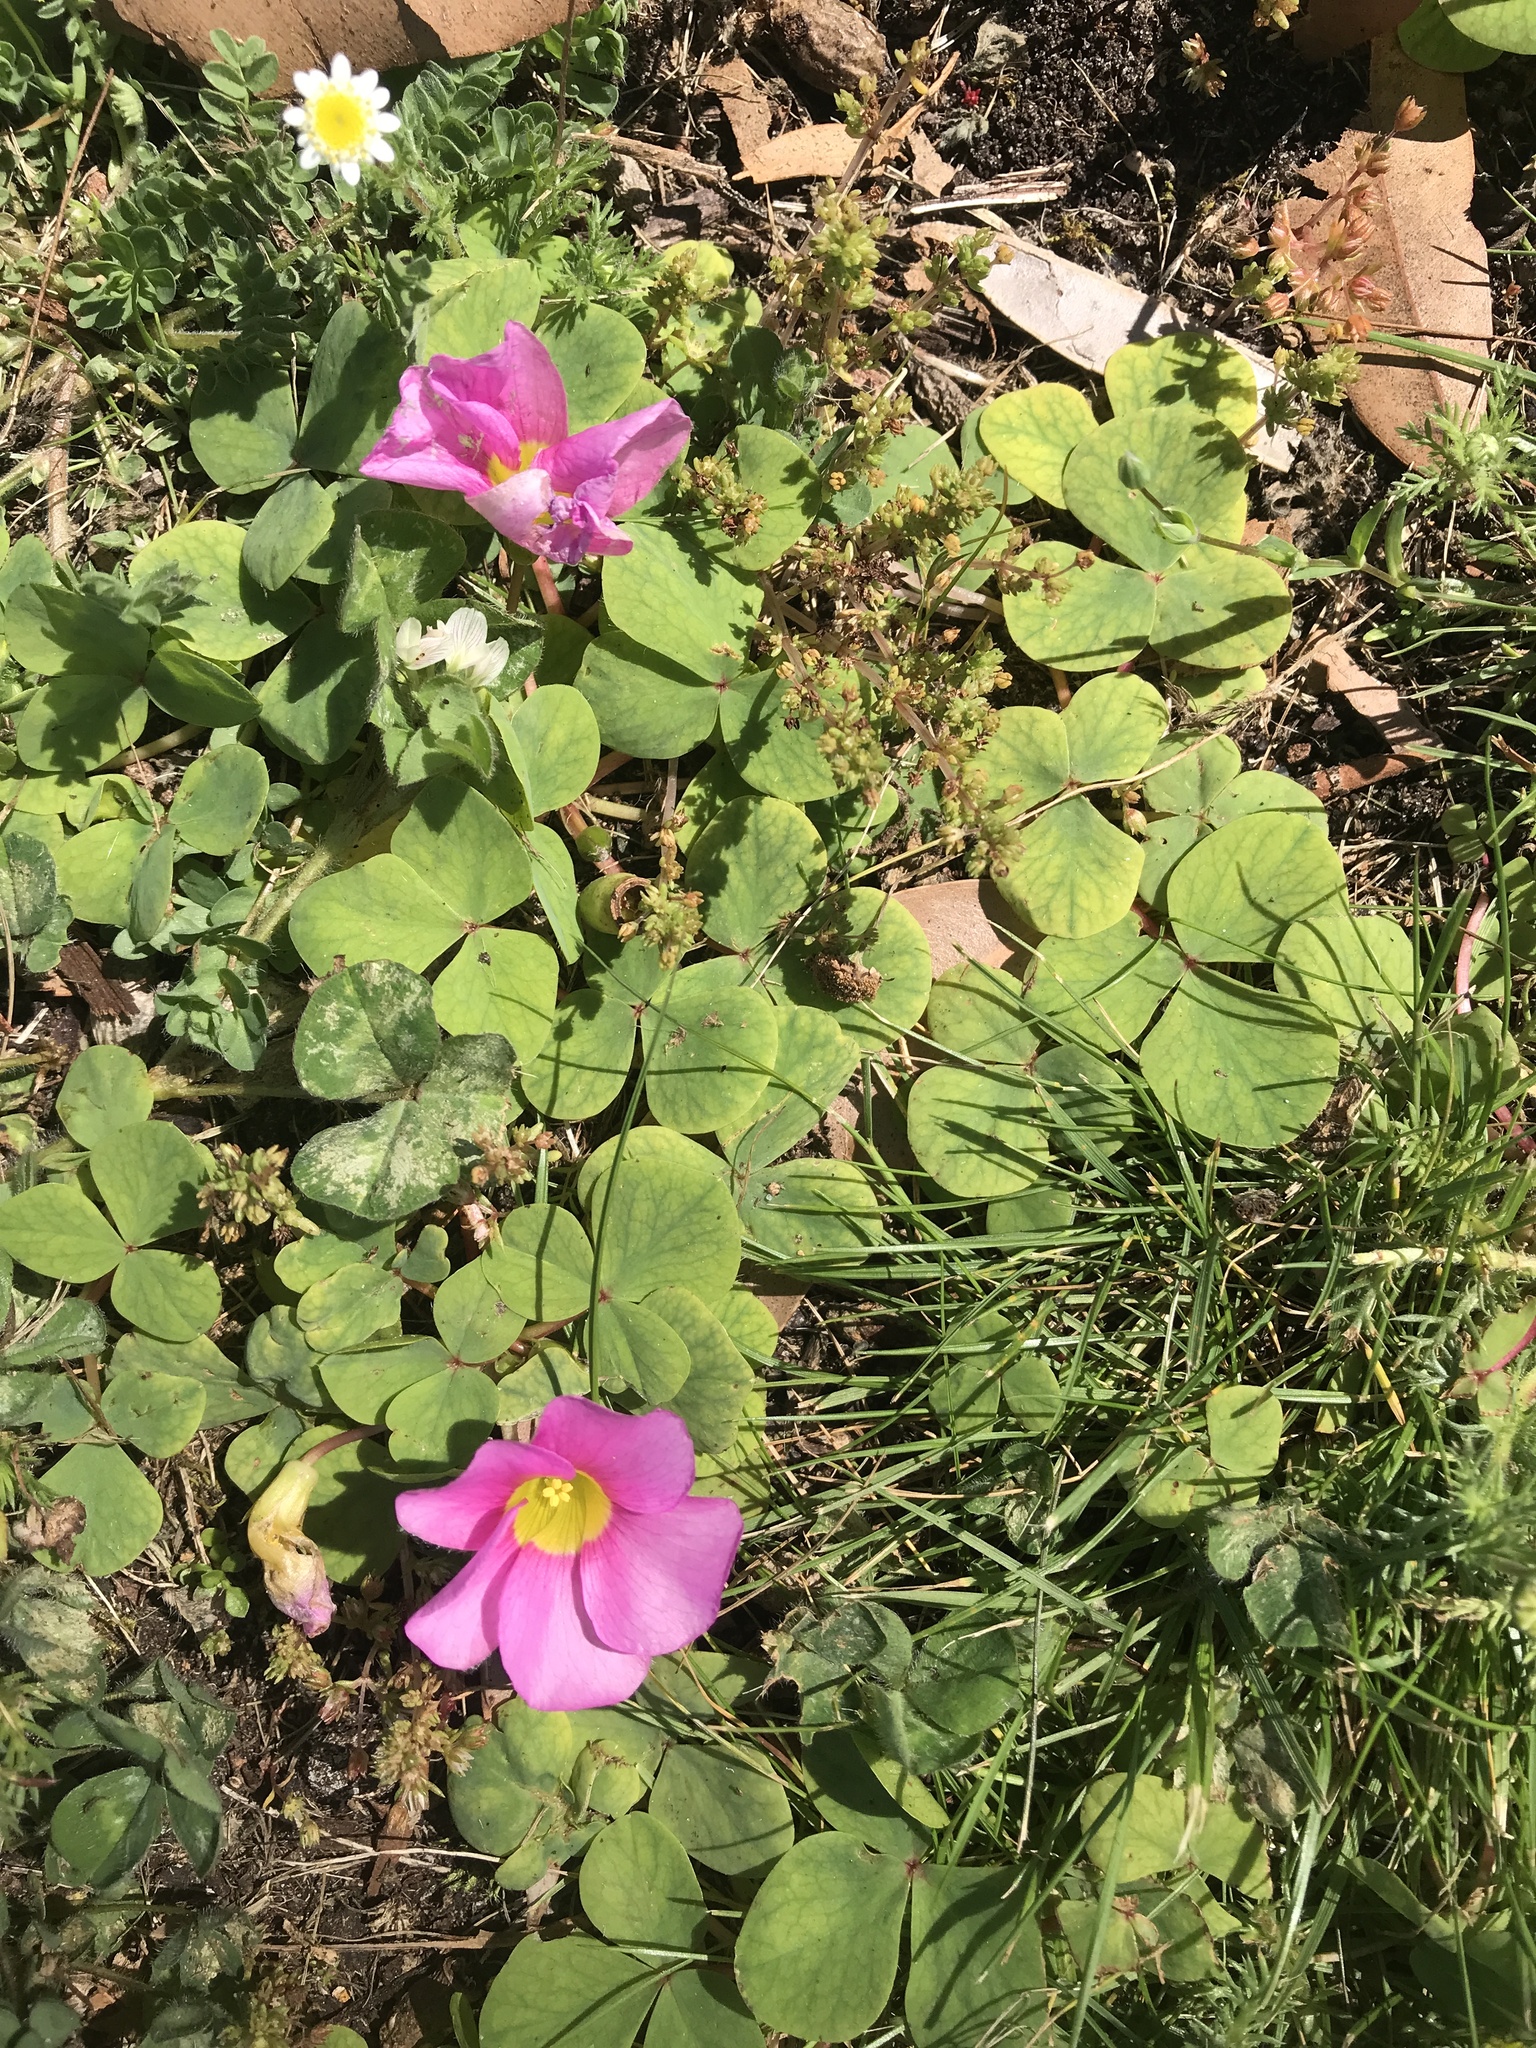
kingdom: Plantae
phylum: Tracheophyta
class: Magnoliopsida
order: Oxalidales
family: Oxalidaceae
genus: Oxalis
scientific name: Oxalis purpurea
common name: Purple woodsorrel
